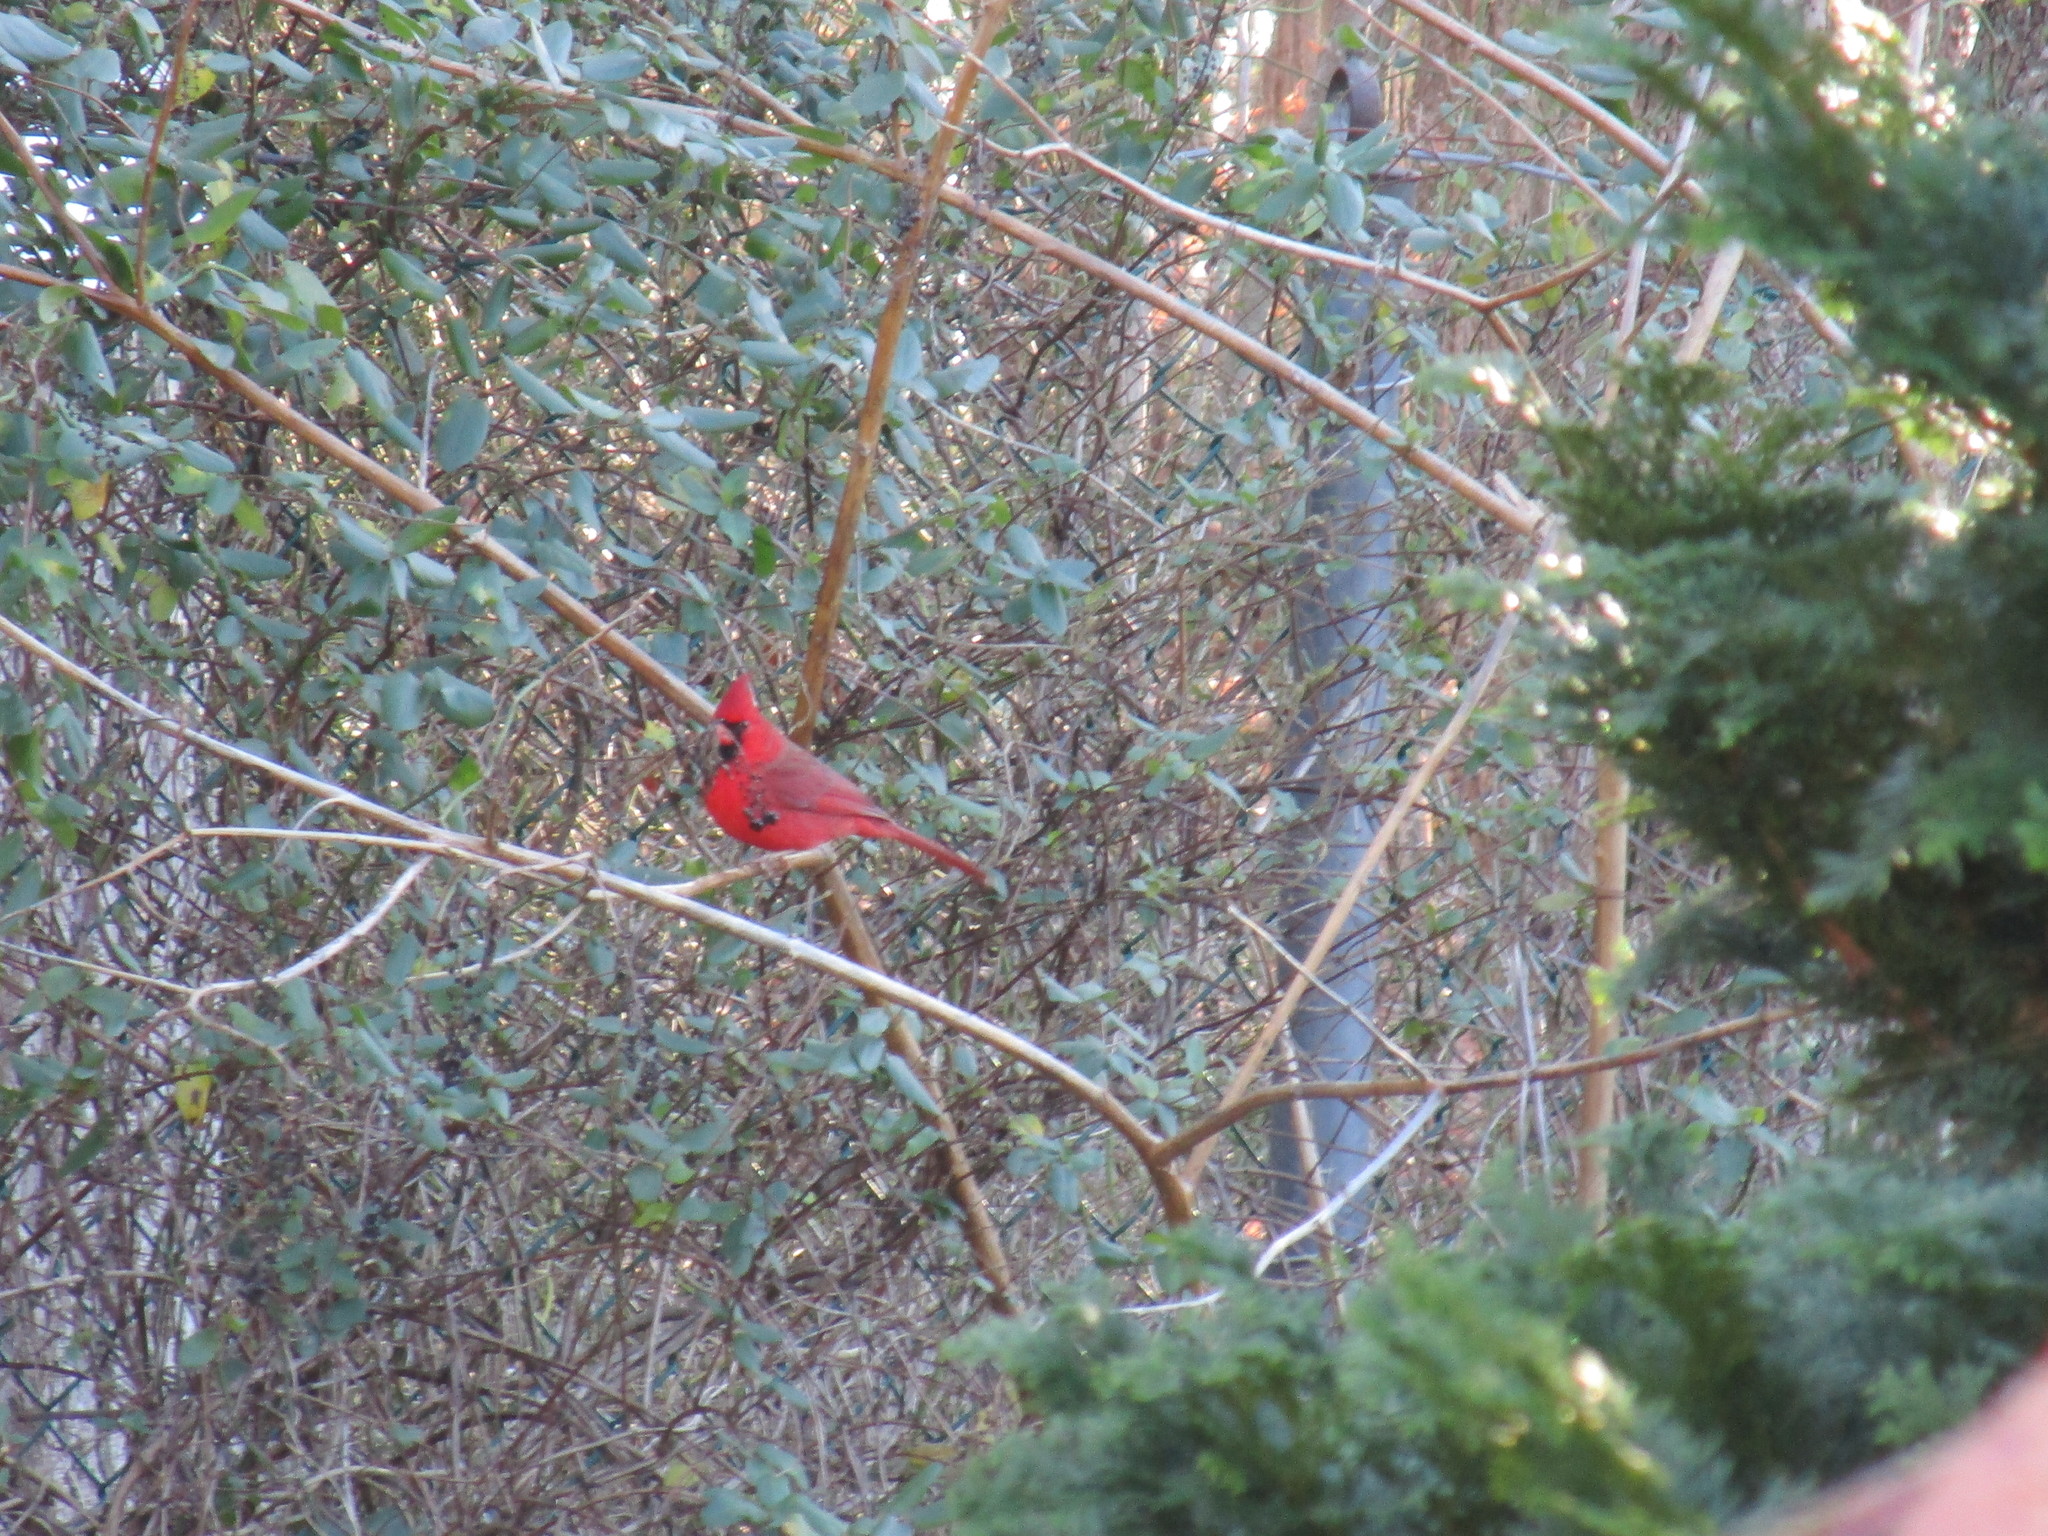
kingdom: Animalia
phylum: Chordata
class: Aves
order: Passeriformes
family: Cardinalidae
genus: Cardinalis
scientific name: Cardinalis cardinalis
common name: Northern cardinal
